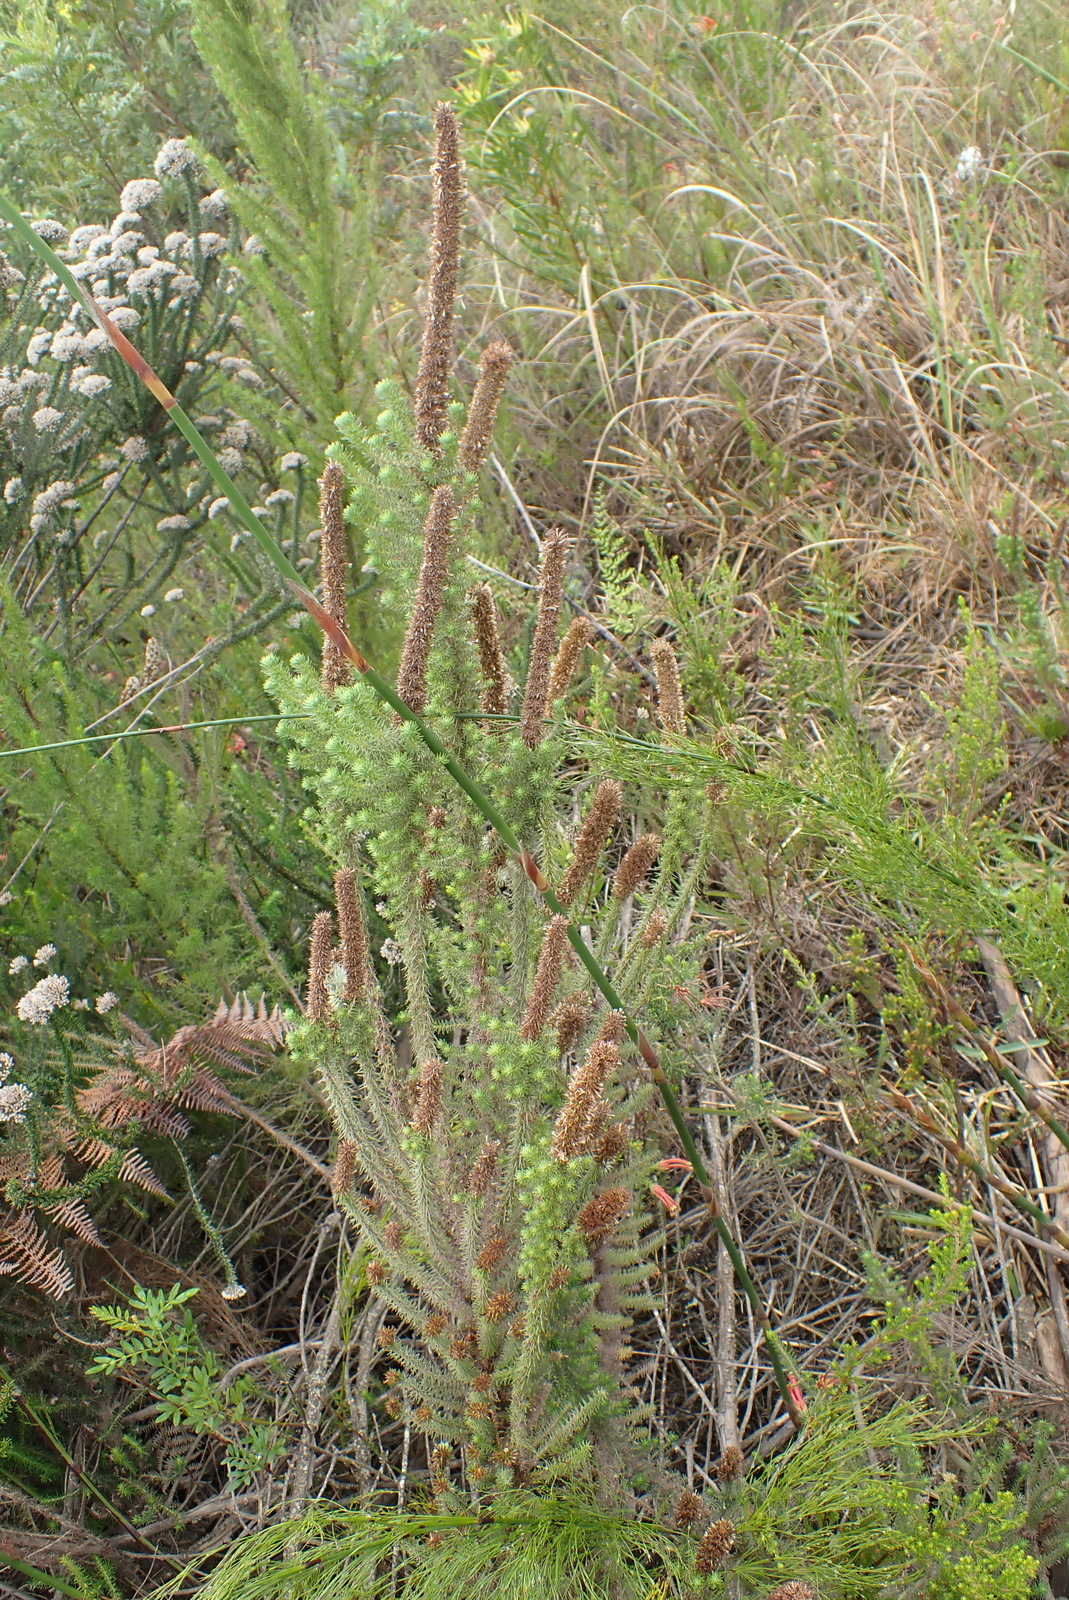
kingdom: Plantae
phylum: Tracheophyta
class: Magnoliopsida
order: Asterales
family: Asteraceae
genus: Stoebe
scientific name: Stoebe alopecuroides
